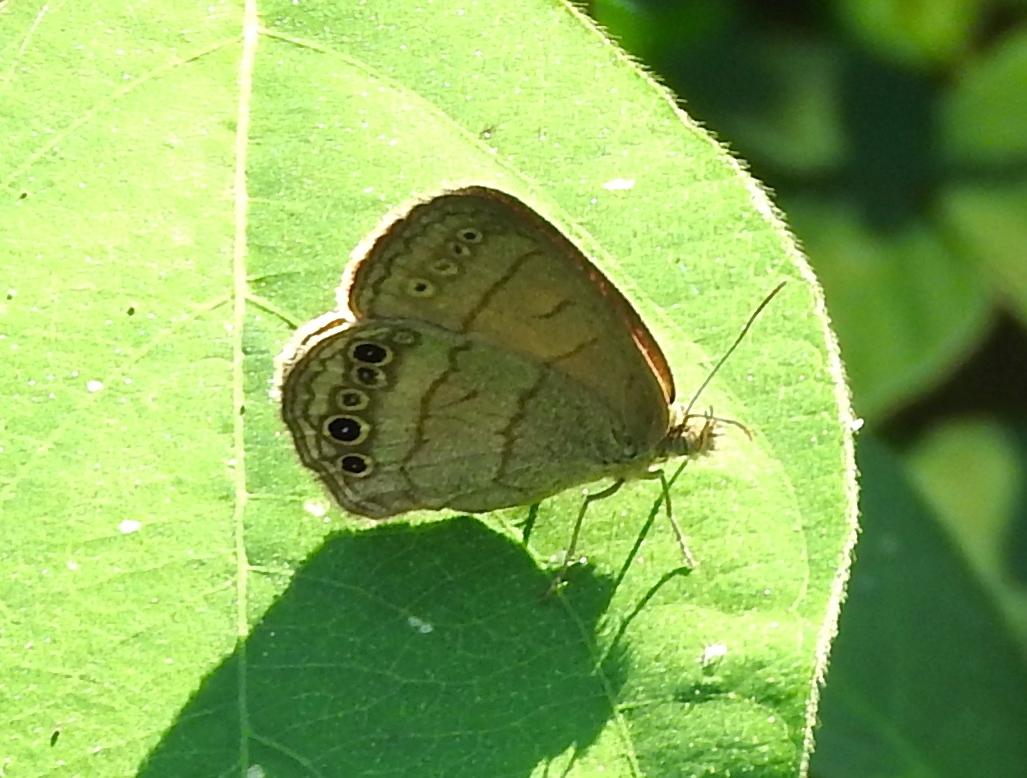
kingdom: Animalia
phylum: Arthropoda
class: Insecta
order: Lepidoptera
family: Nymphalidae
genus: Hermeuptychia
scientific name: Hermeuptychia hermes
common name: Hermes satyr
